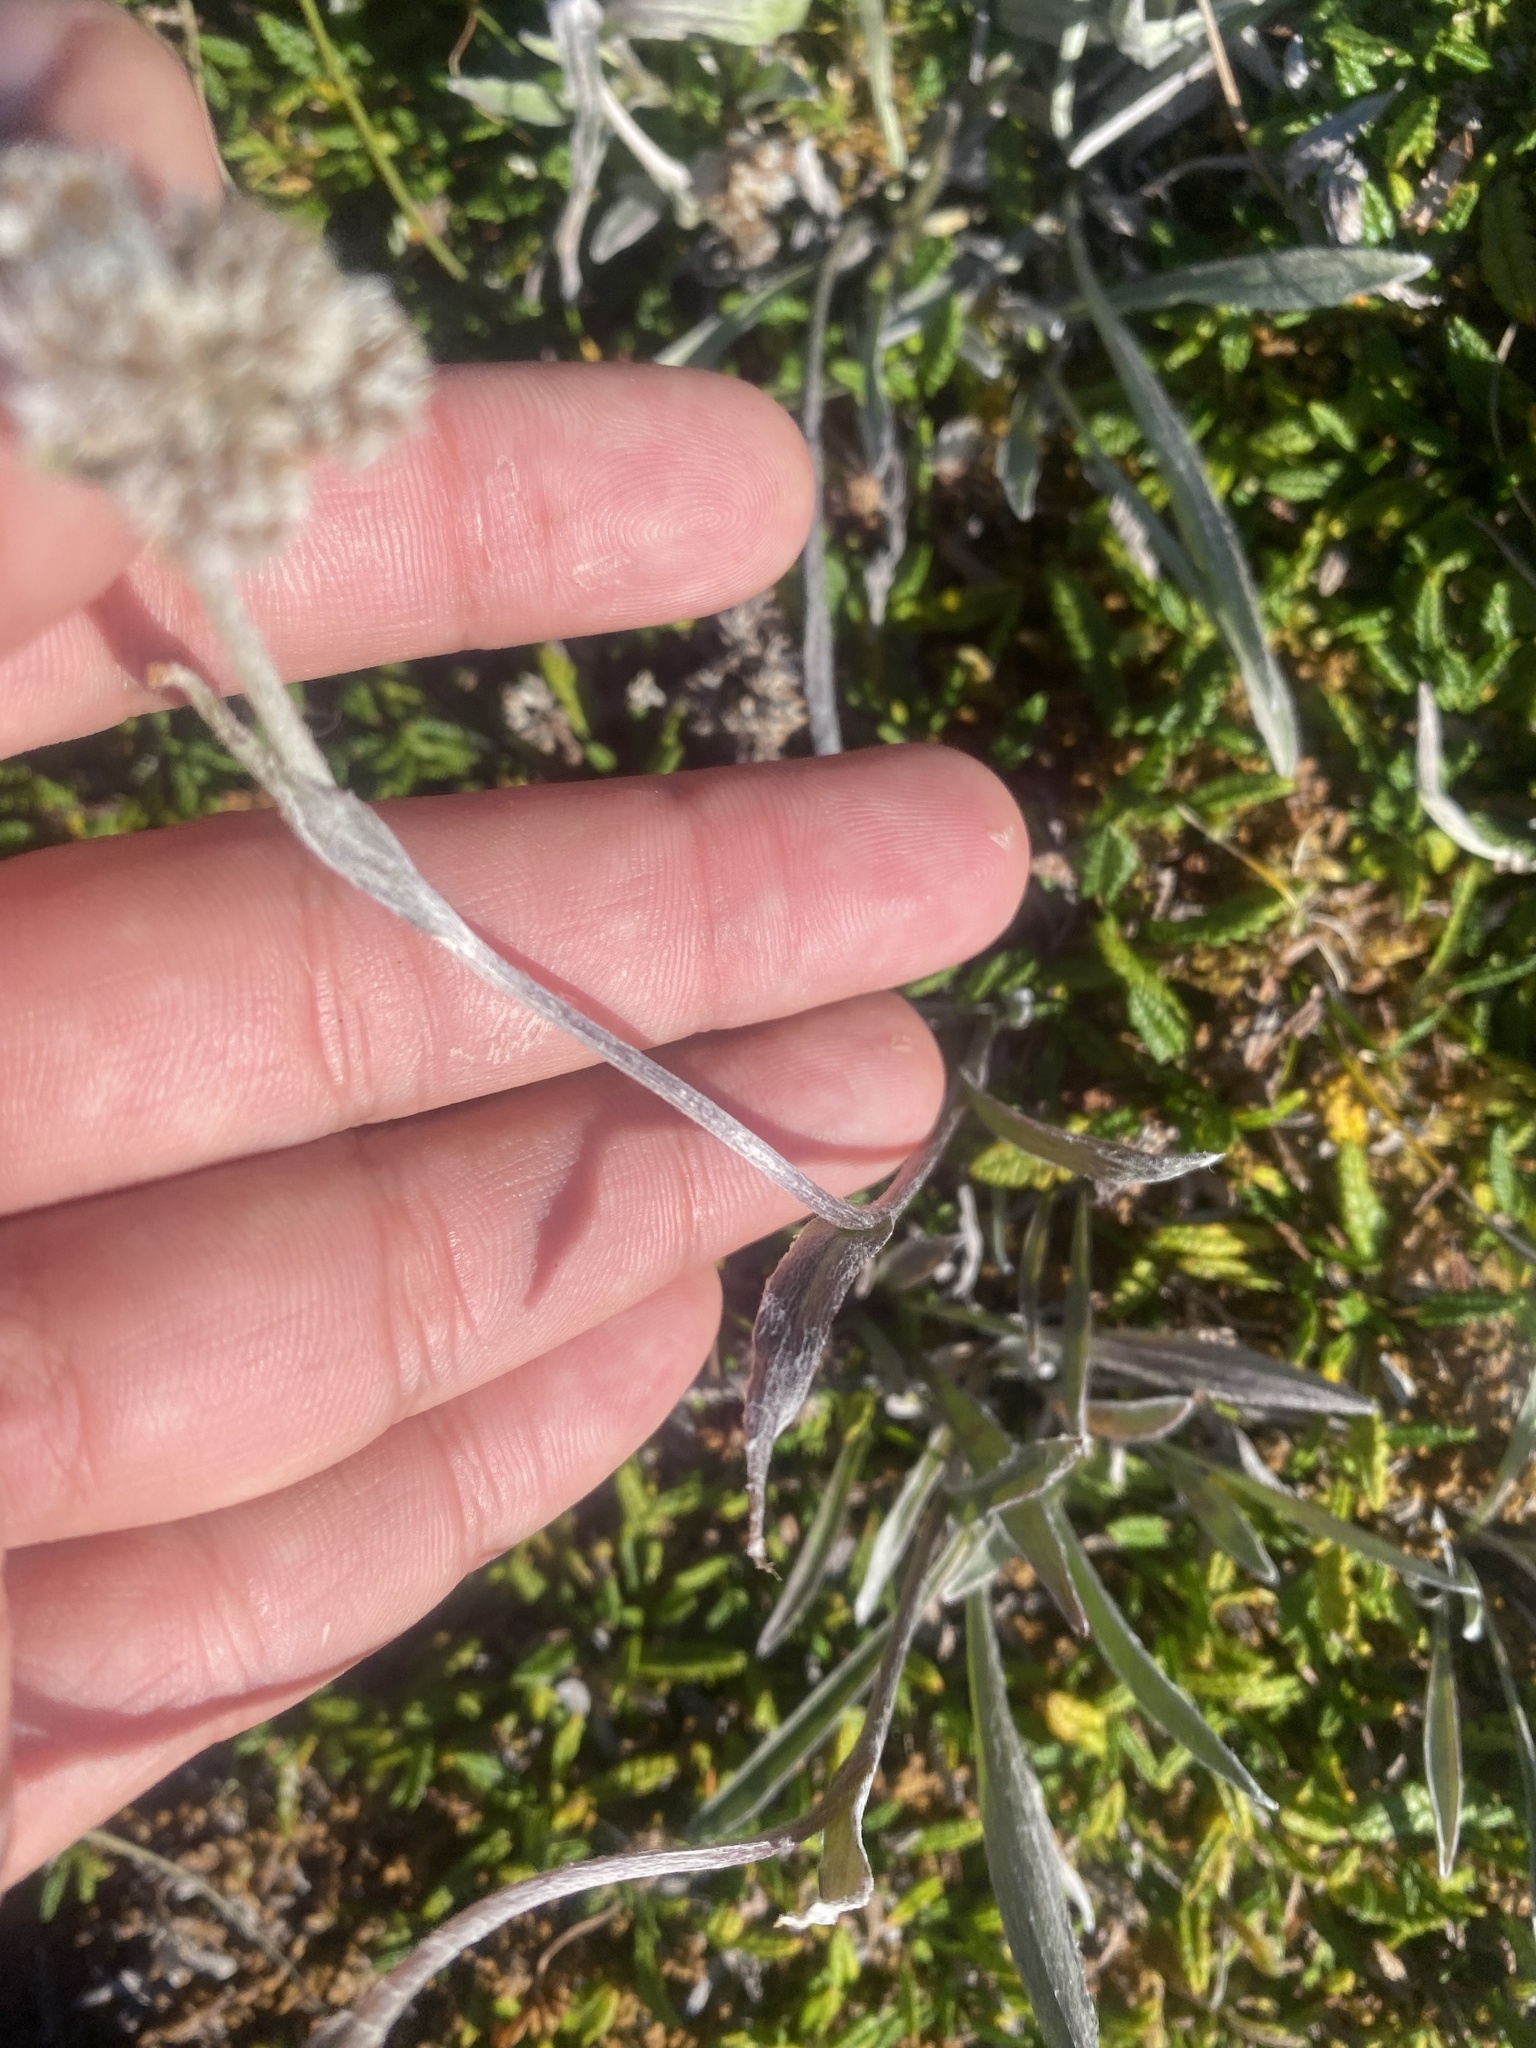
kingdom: Plantae
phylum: Tracheophyta
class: Magnoliopsida
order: Asterales
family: Asteraceae
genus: Antennaria
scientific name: Antennaria lanata
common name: Woolly pussytoes
